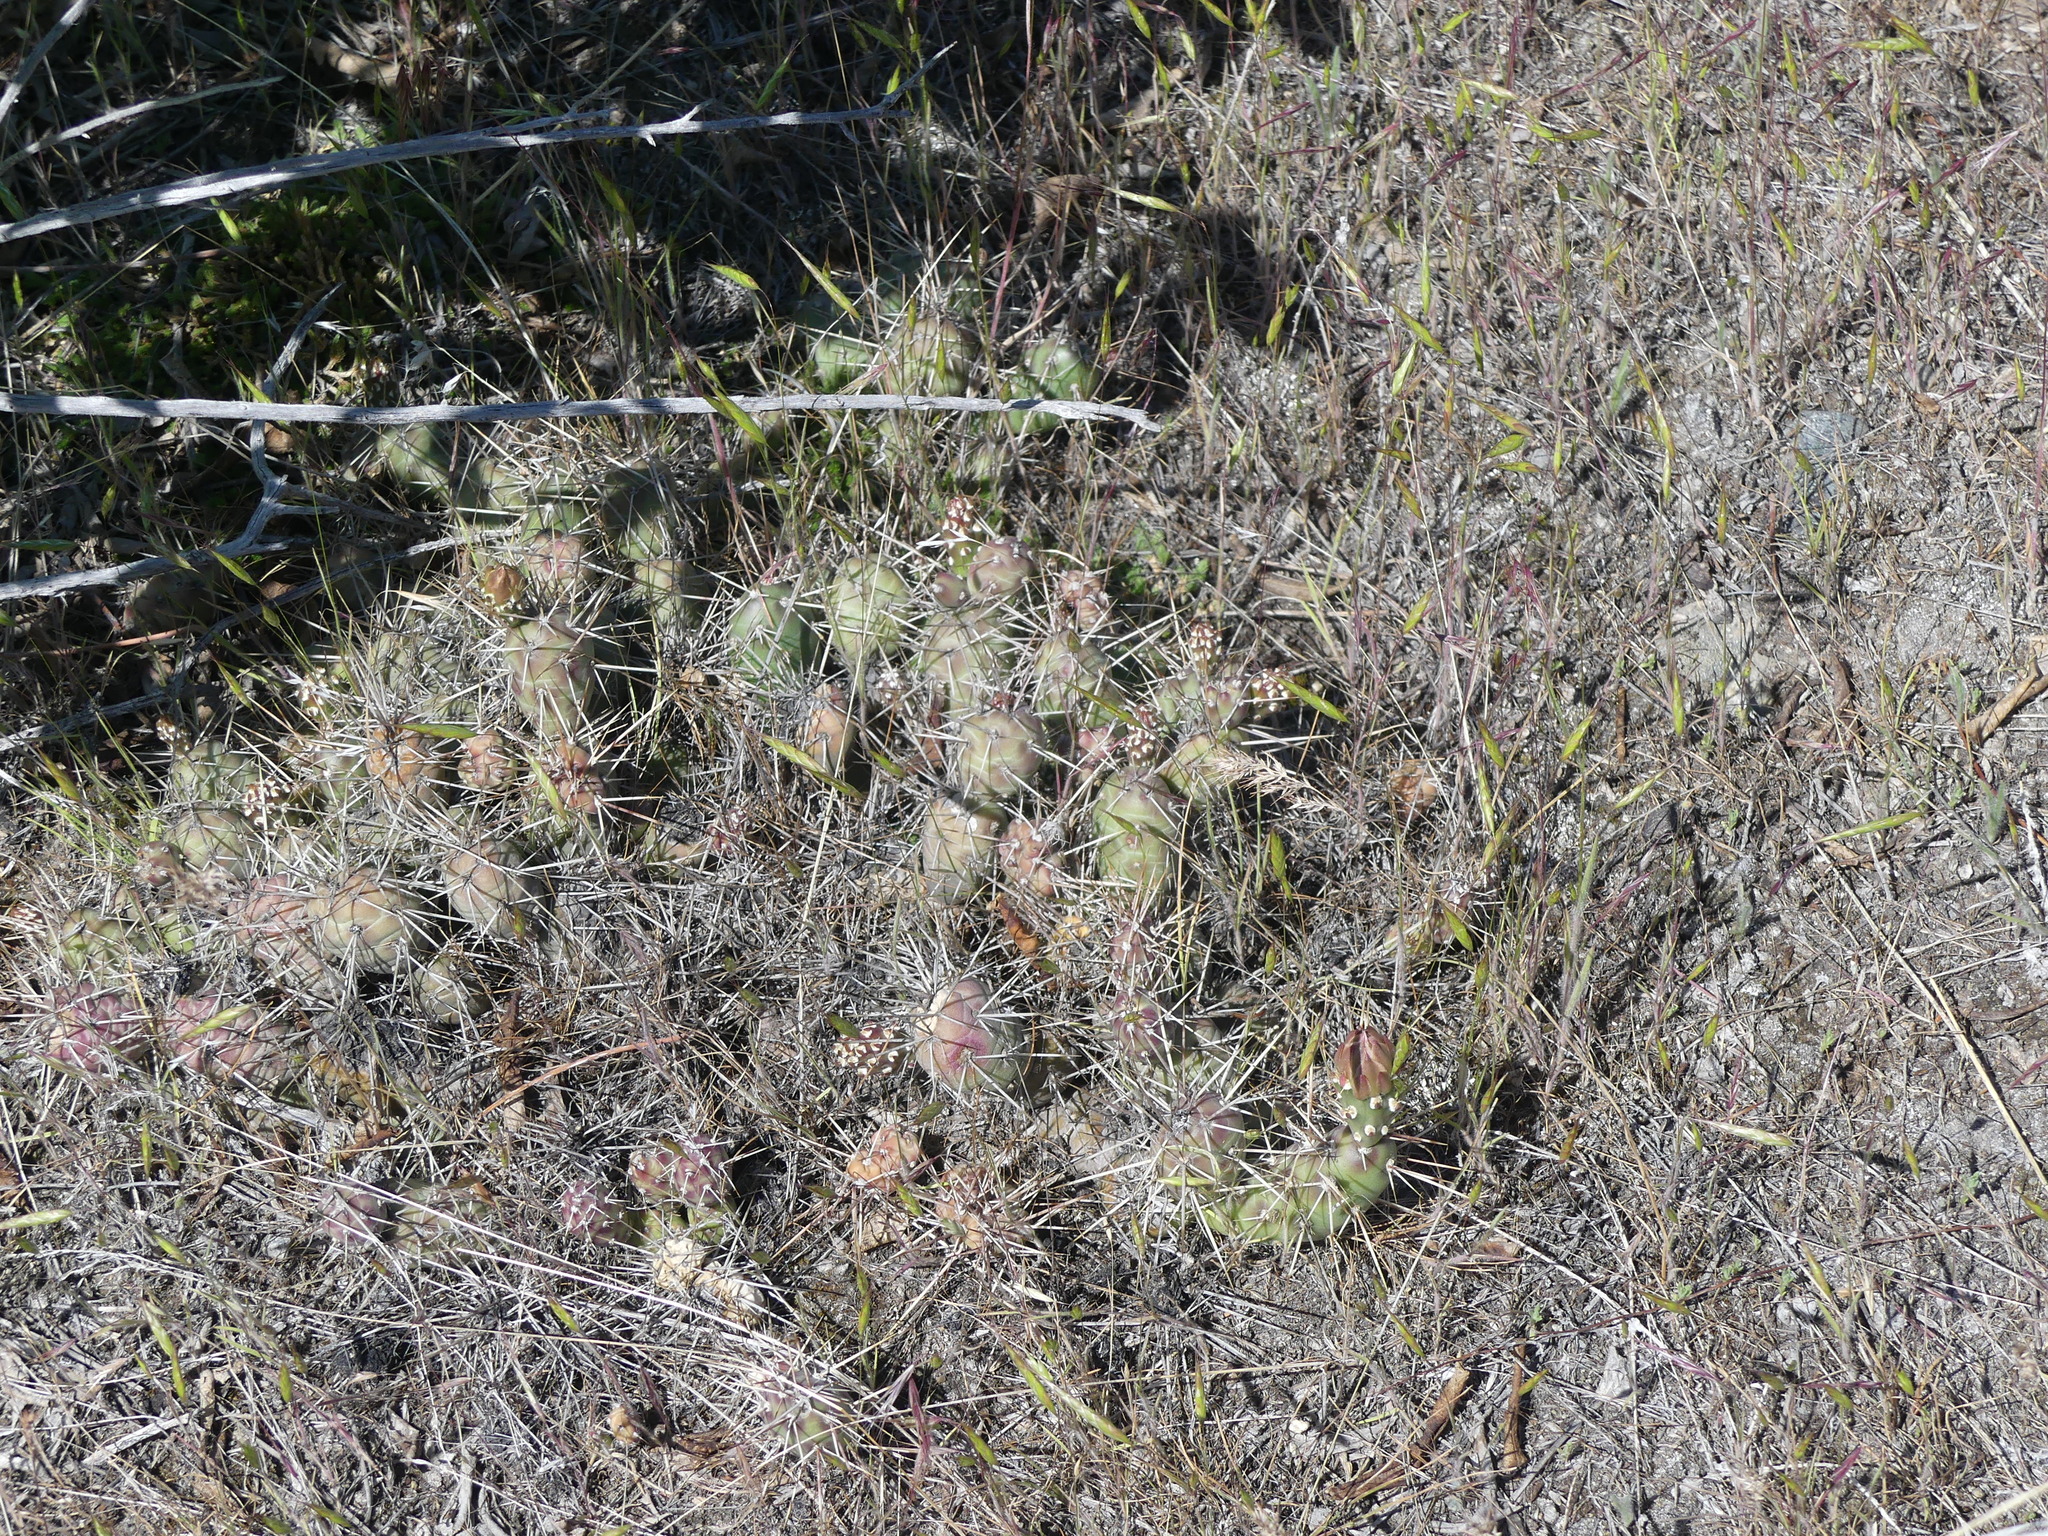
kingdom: Plantae
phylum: Tracheophyta
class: Magnoliopsida
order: Caryophyllales
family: Cactaceae
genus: Opuntia
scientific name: Opuntia fragilis
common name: Brittle cactus
